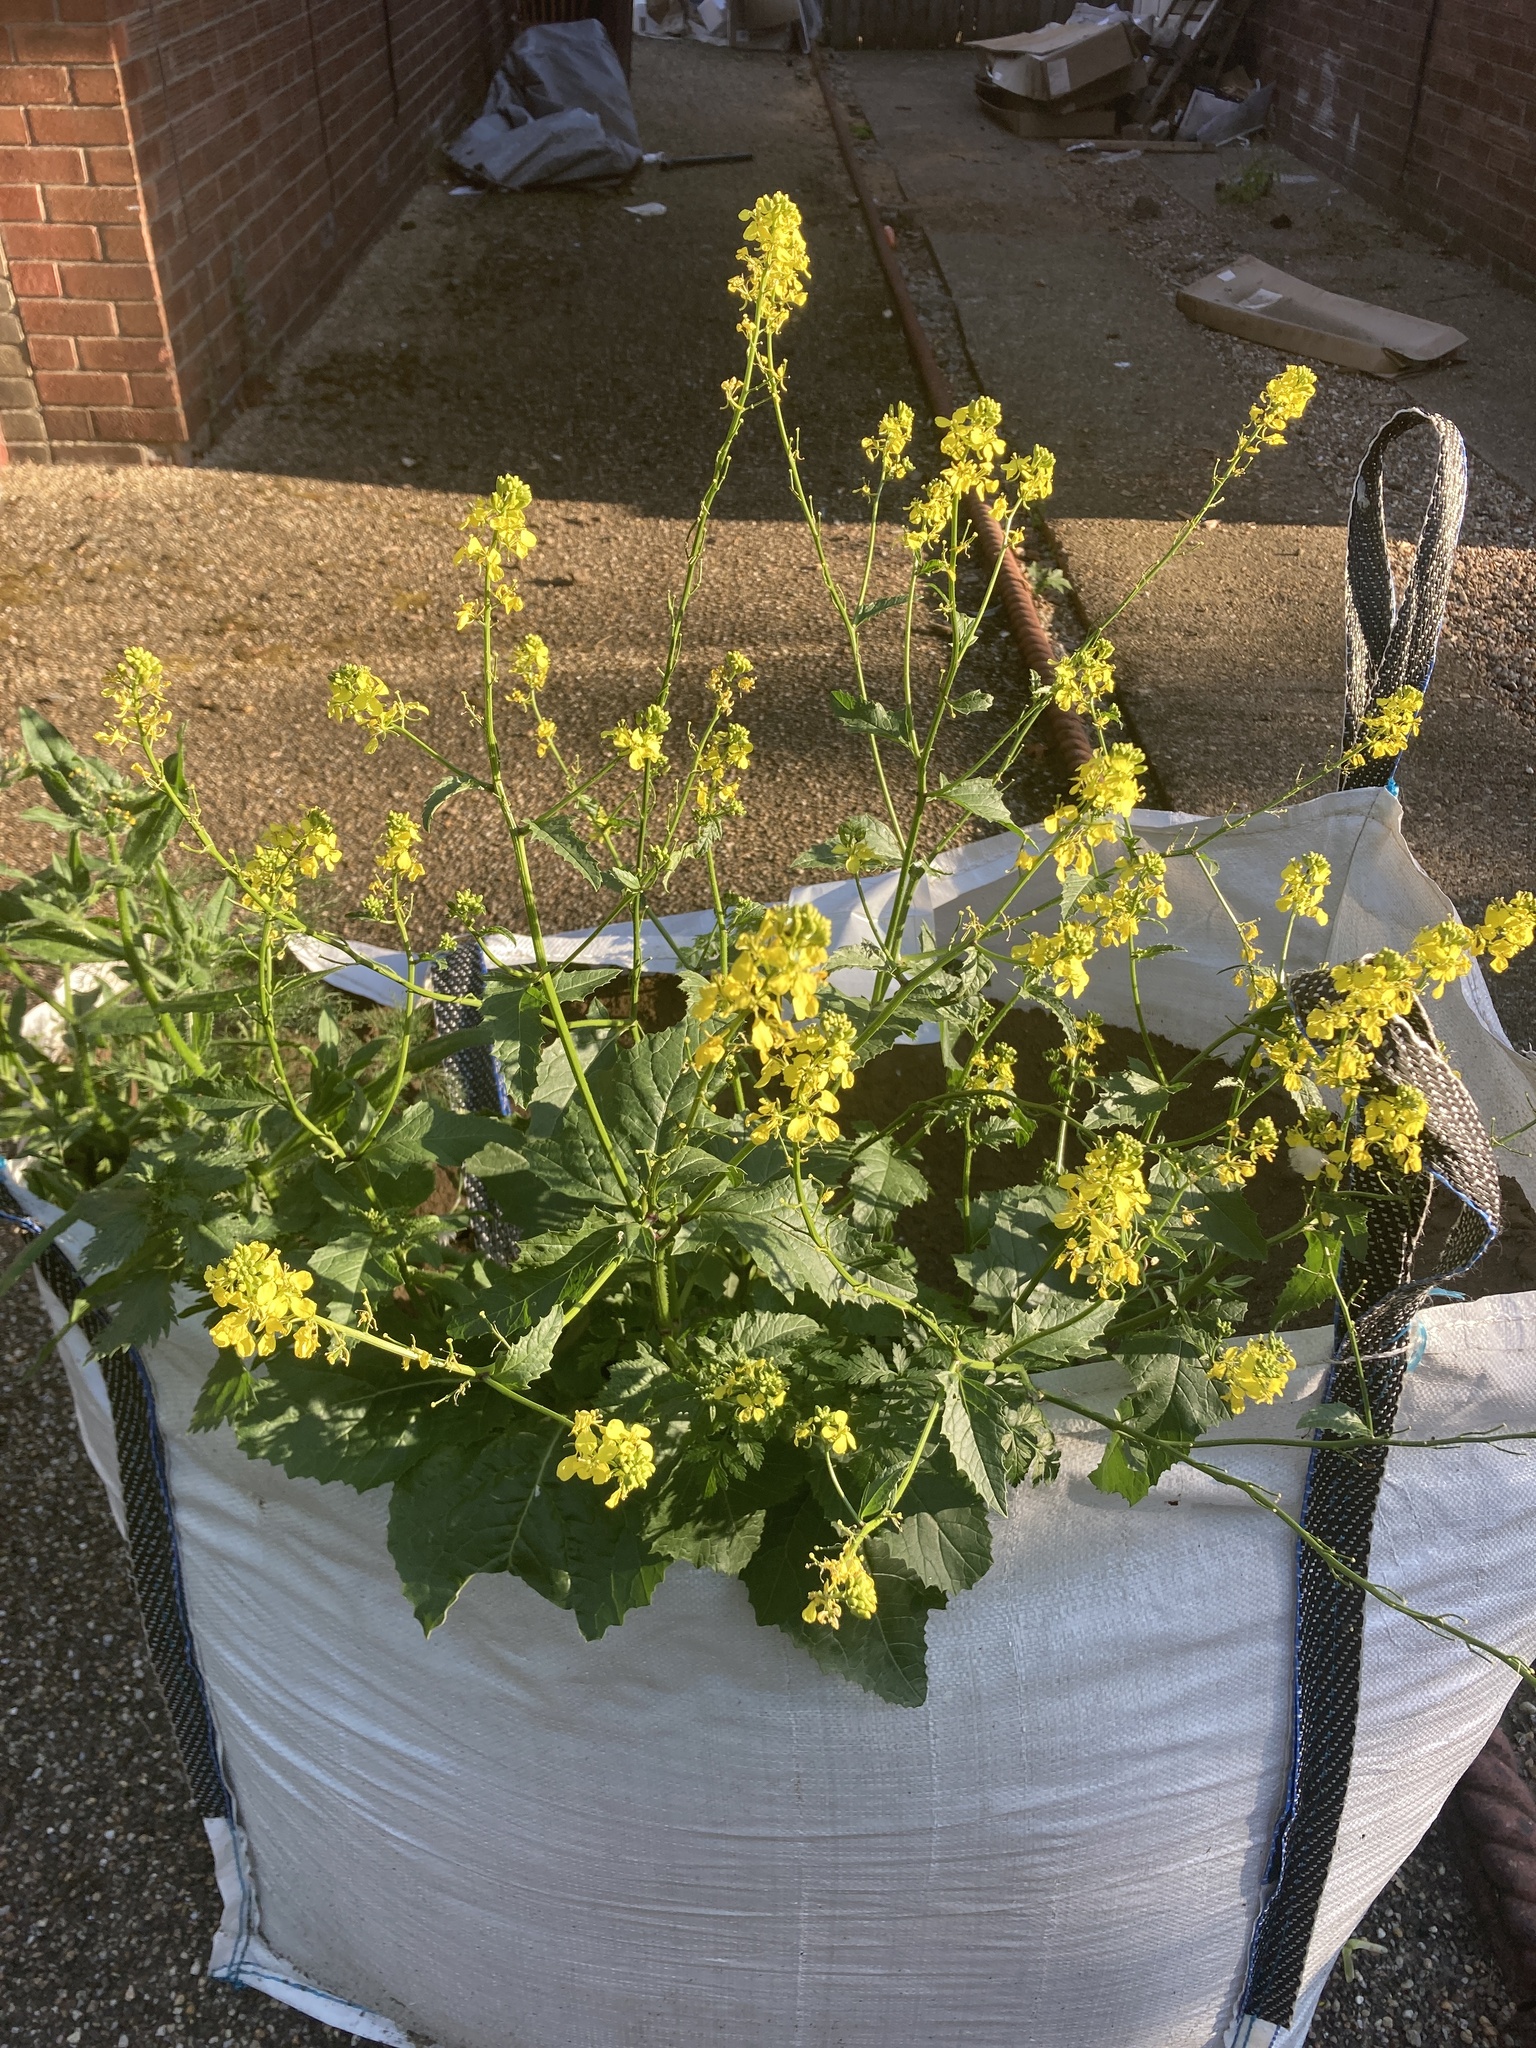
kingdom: Plantae
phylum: Tracheophyta
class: Magnoliopsida
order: Brassicales
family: Brassicaceae
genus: Sinapis
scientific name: Sinapis arvensis
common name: Charlock
